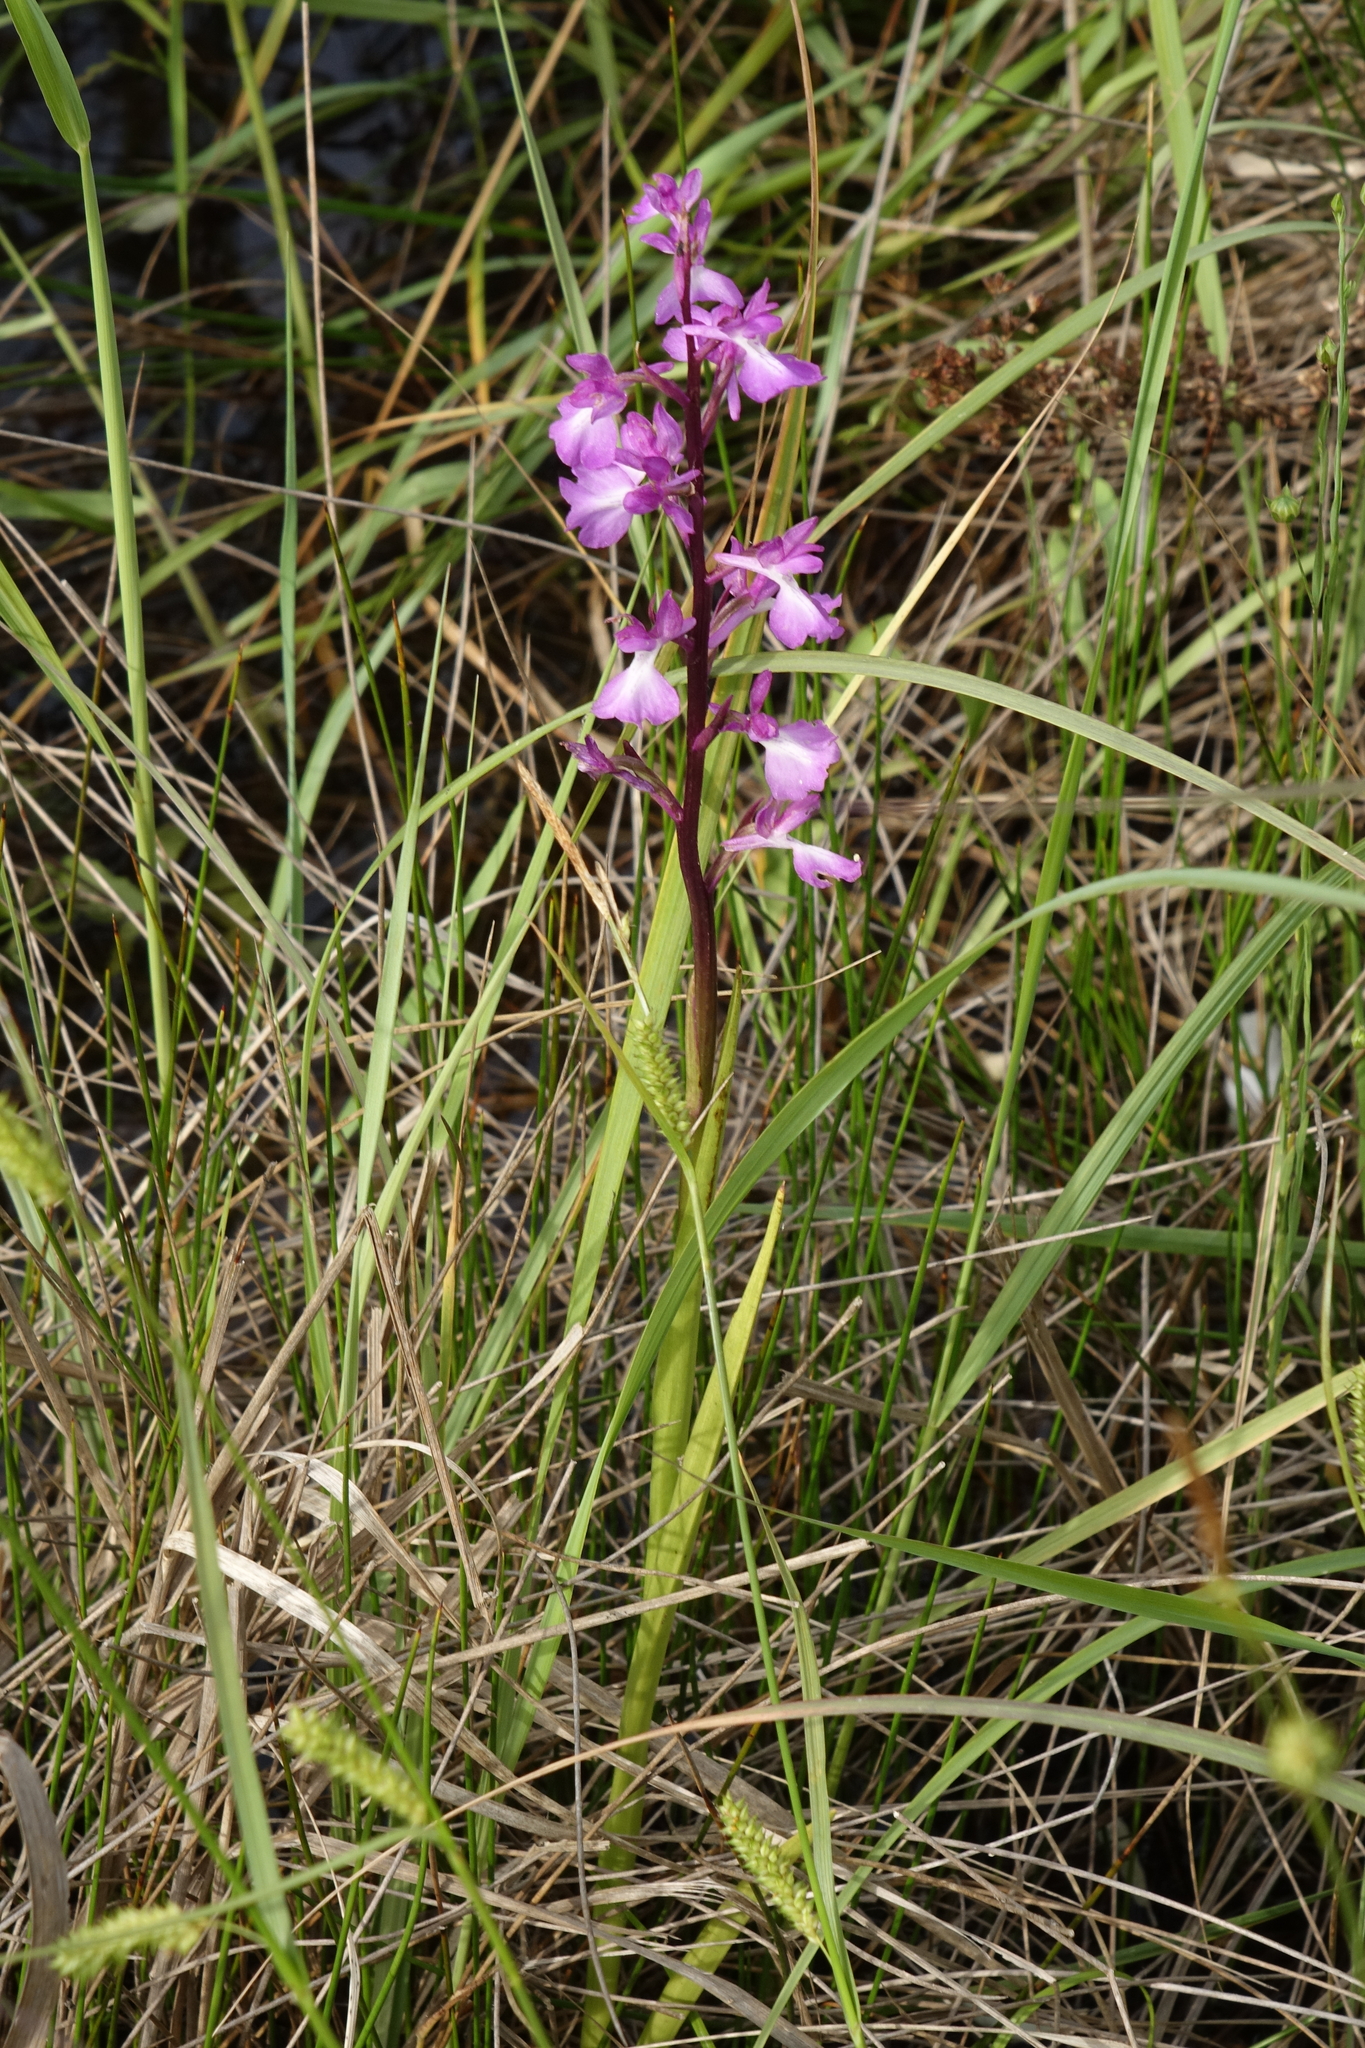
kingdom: Plantae
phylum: Tracheophyta
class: Liliopsida
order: Asparagales
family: Orchidaceae
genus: Anacamptis
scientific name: Anacamptis palustris
